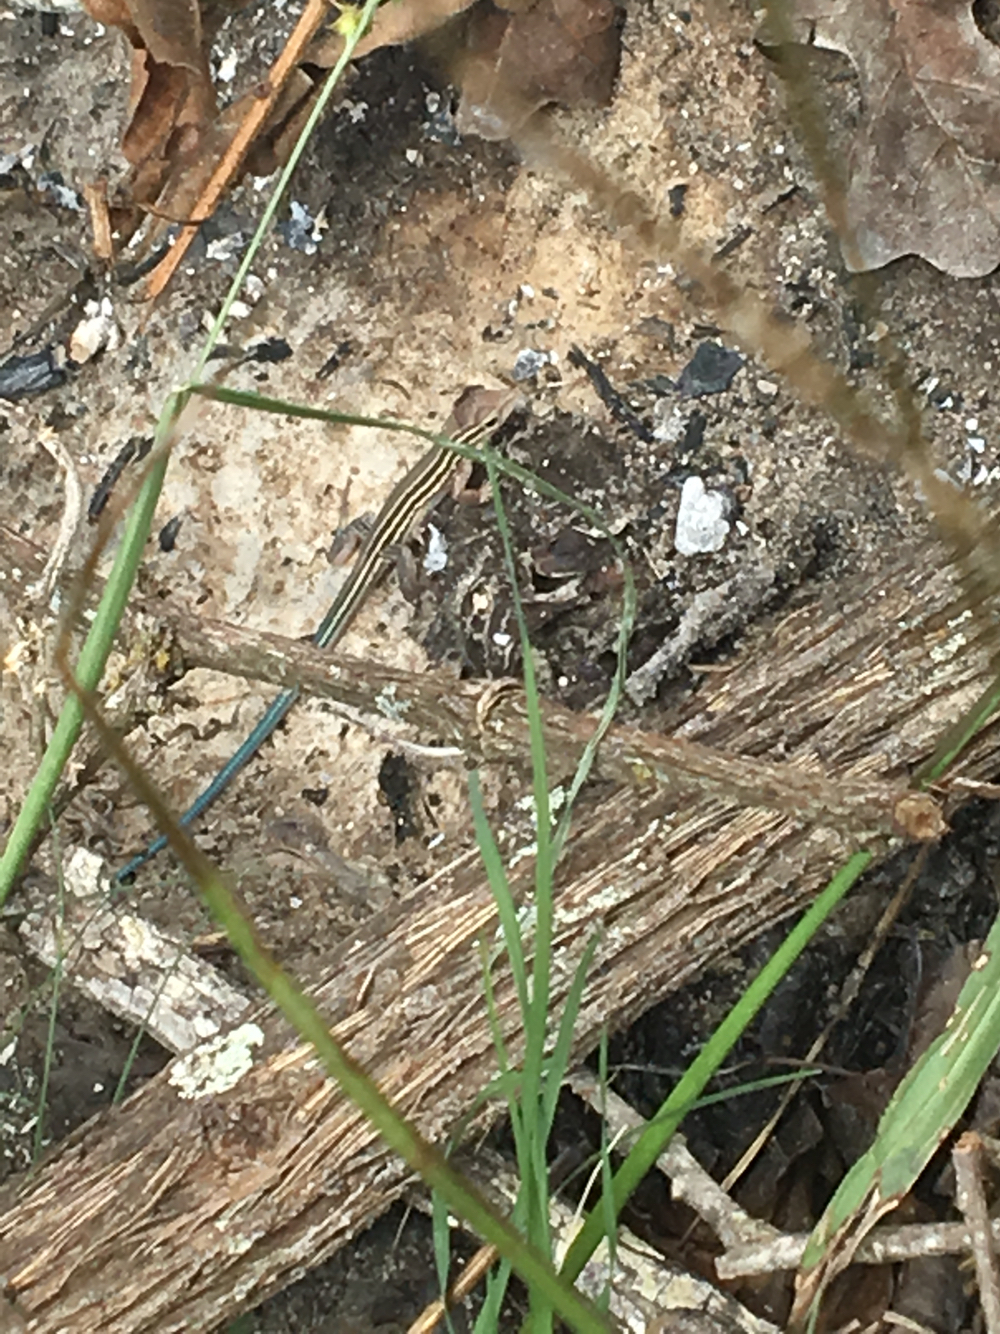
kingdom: Animalia
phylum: Chordata
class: Squamata
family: Teiidae
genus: Aspidoscelis
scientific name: Aspidoscelis sexlineatus
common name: Six-lined racerunner
